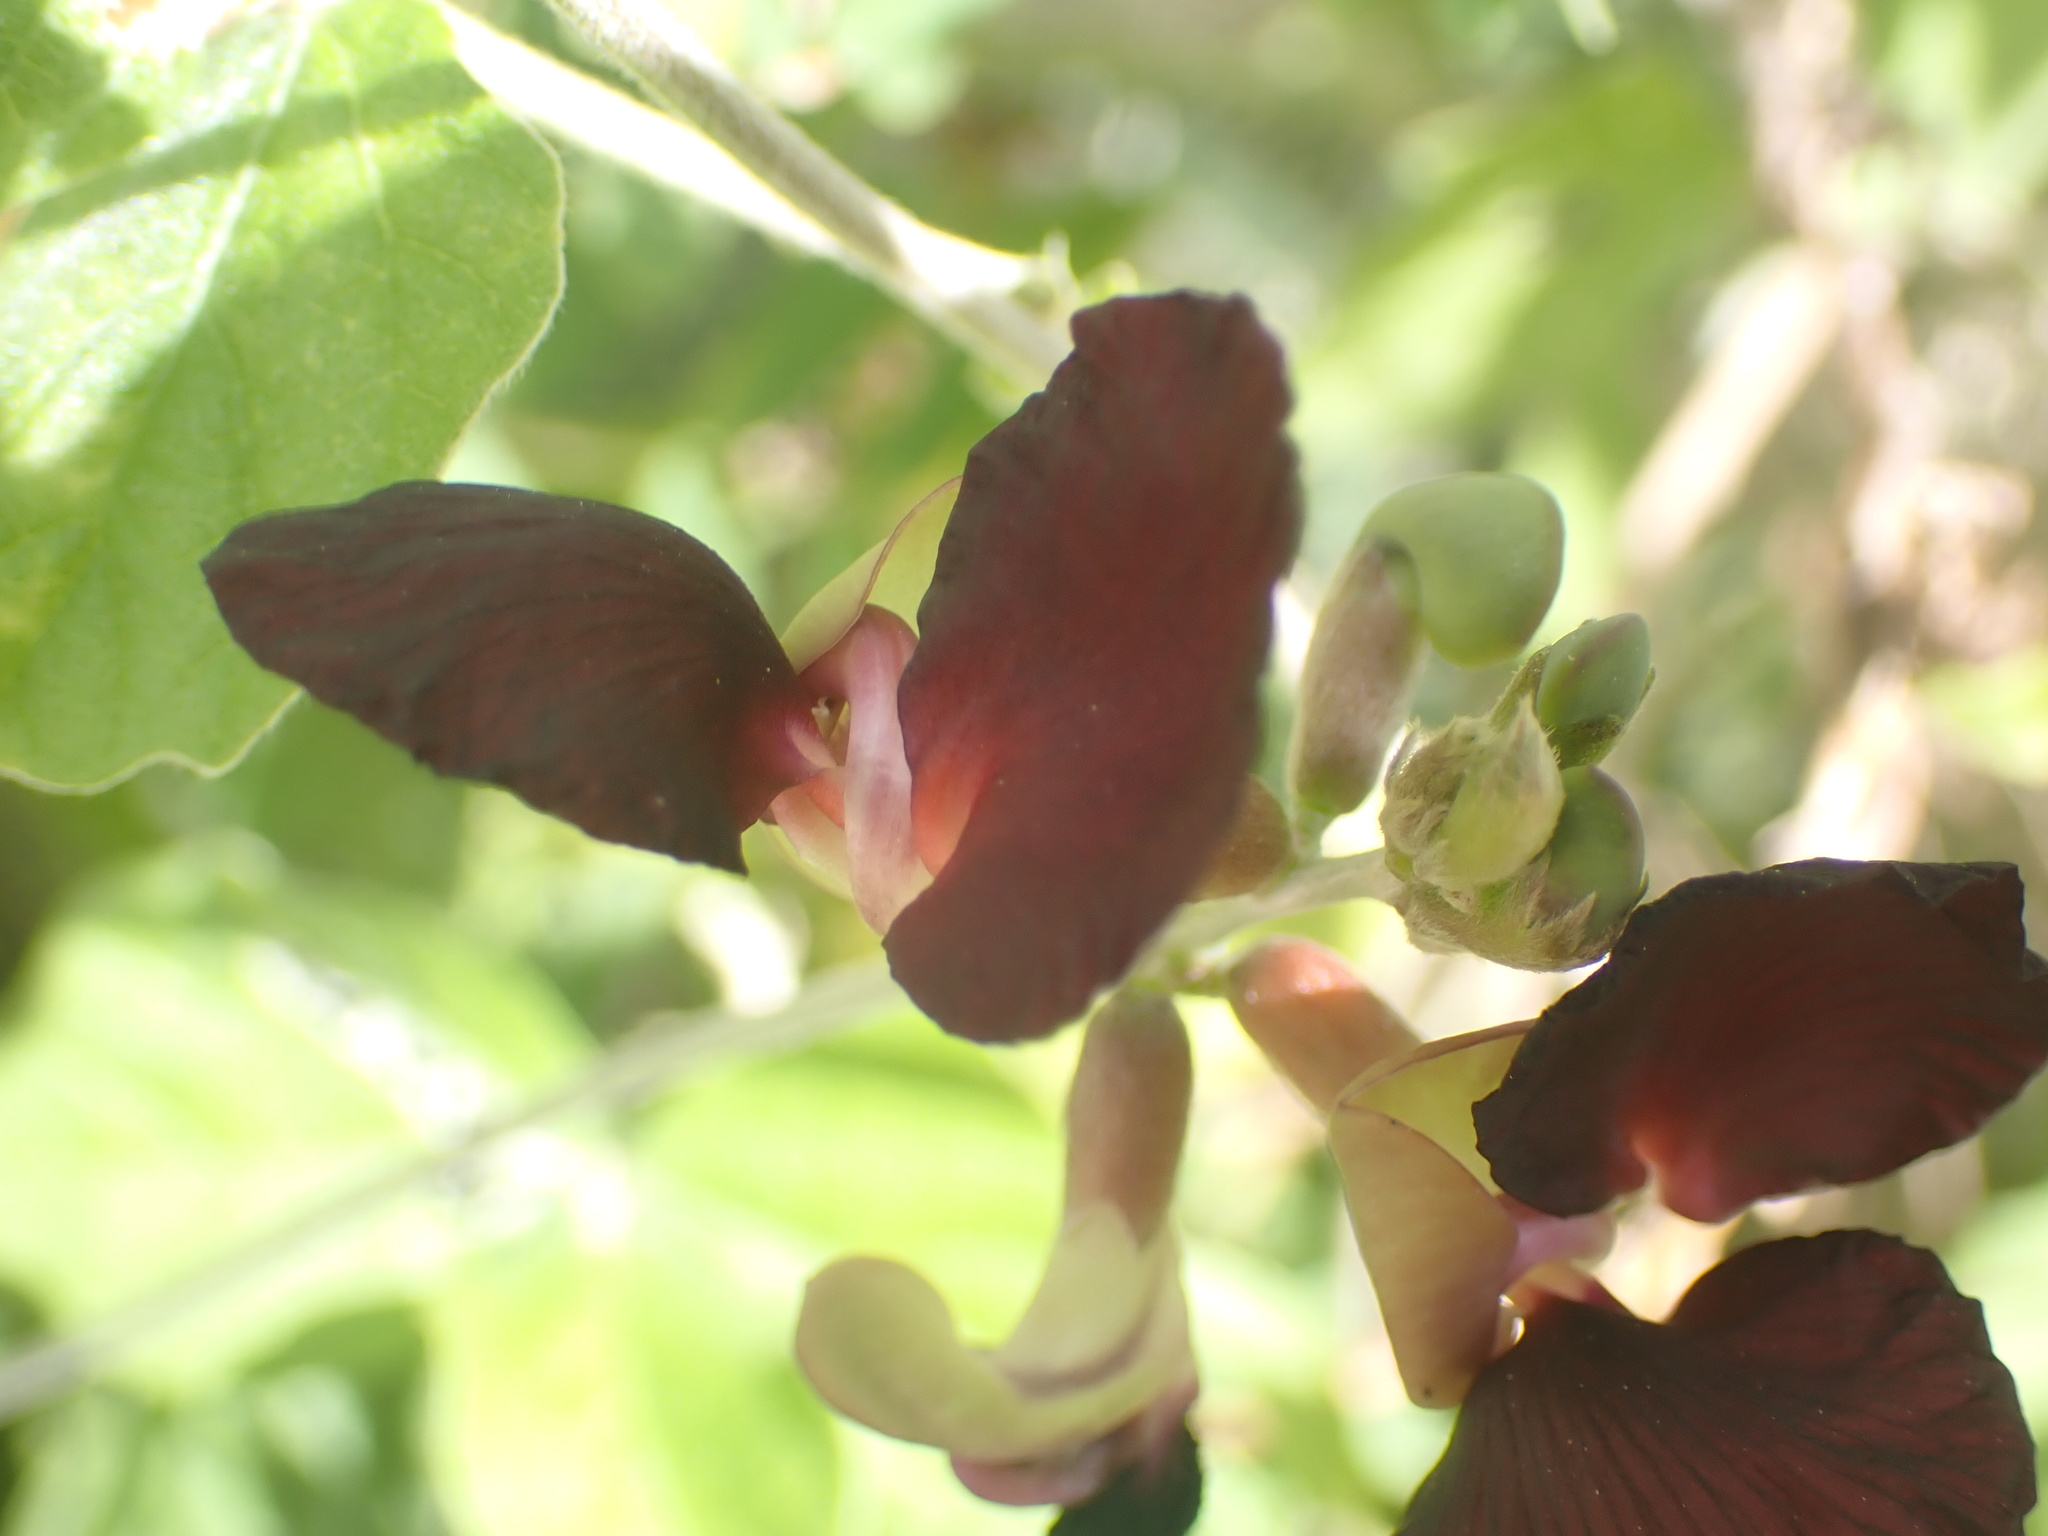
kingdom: Plantae
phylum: Tracheophyta
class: Magnoliopsida
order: Fabales
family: Fabaceae
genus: Macroptilium
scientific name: Macroptilium atropurpureum
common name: Purple bushbean
